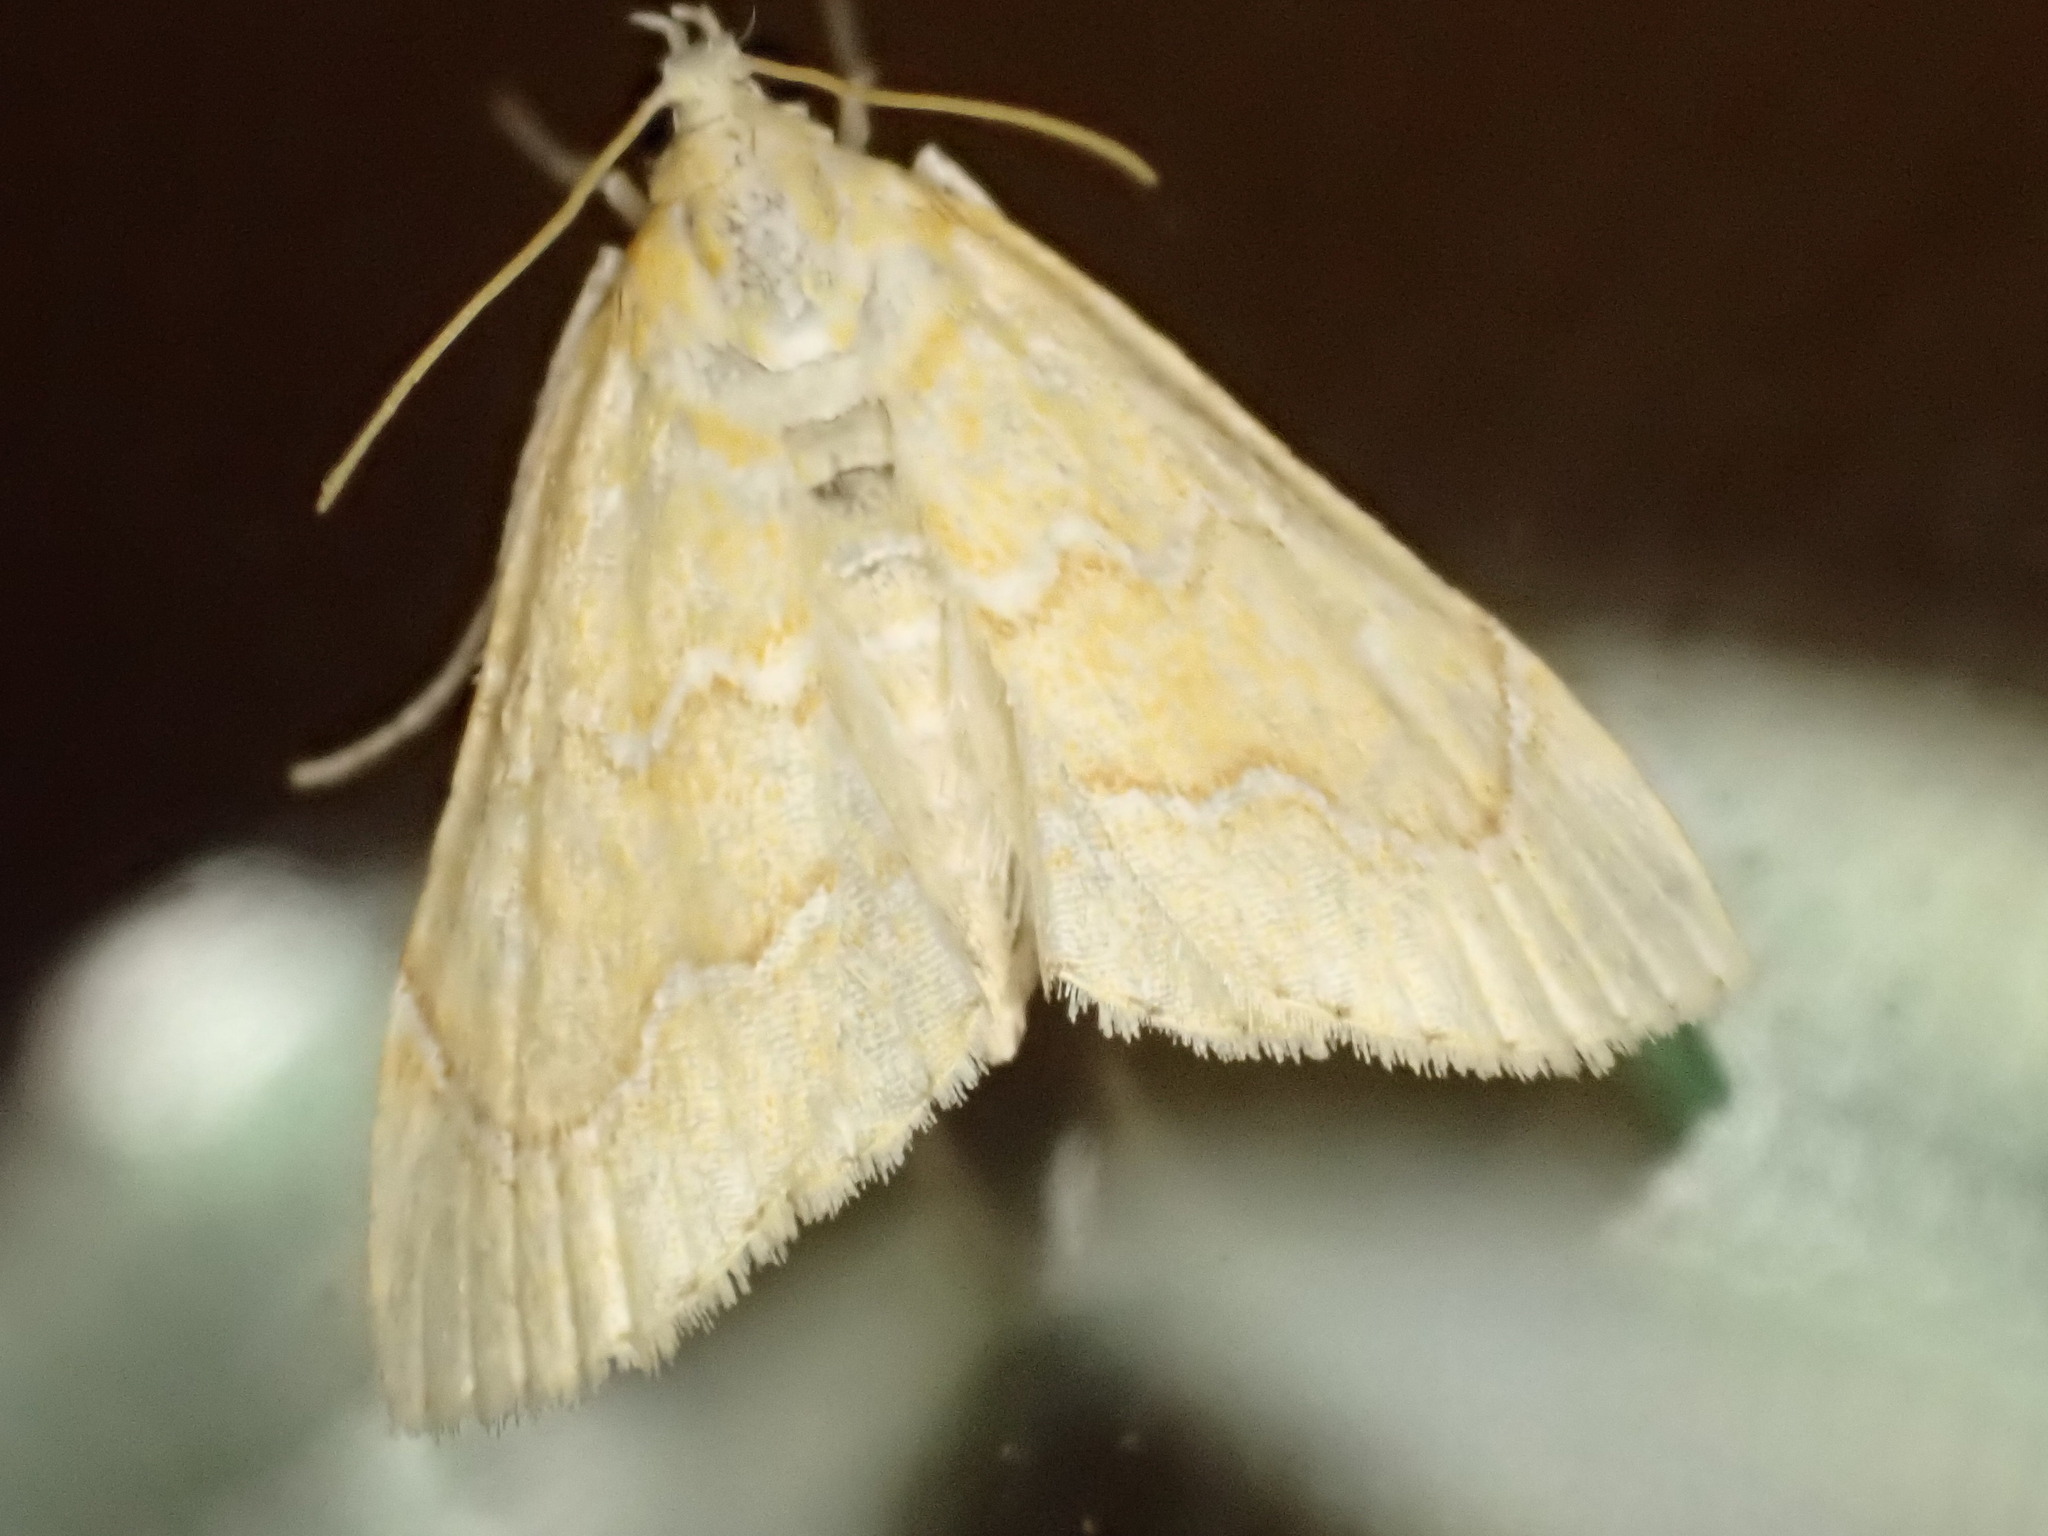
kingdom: Animalia
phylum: Arthropoda
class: Insecta
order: Lepidoptera
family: Crambidae
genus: Glaphyria
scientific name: Glaphyria glaphyralis
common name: Common glaphyria moth
